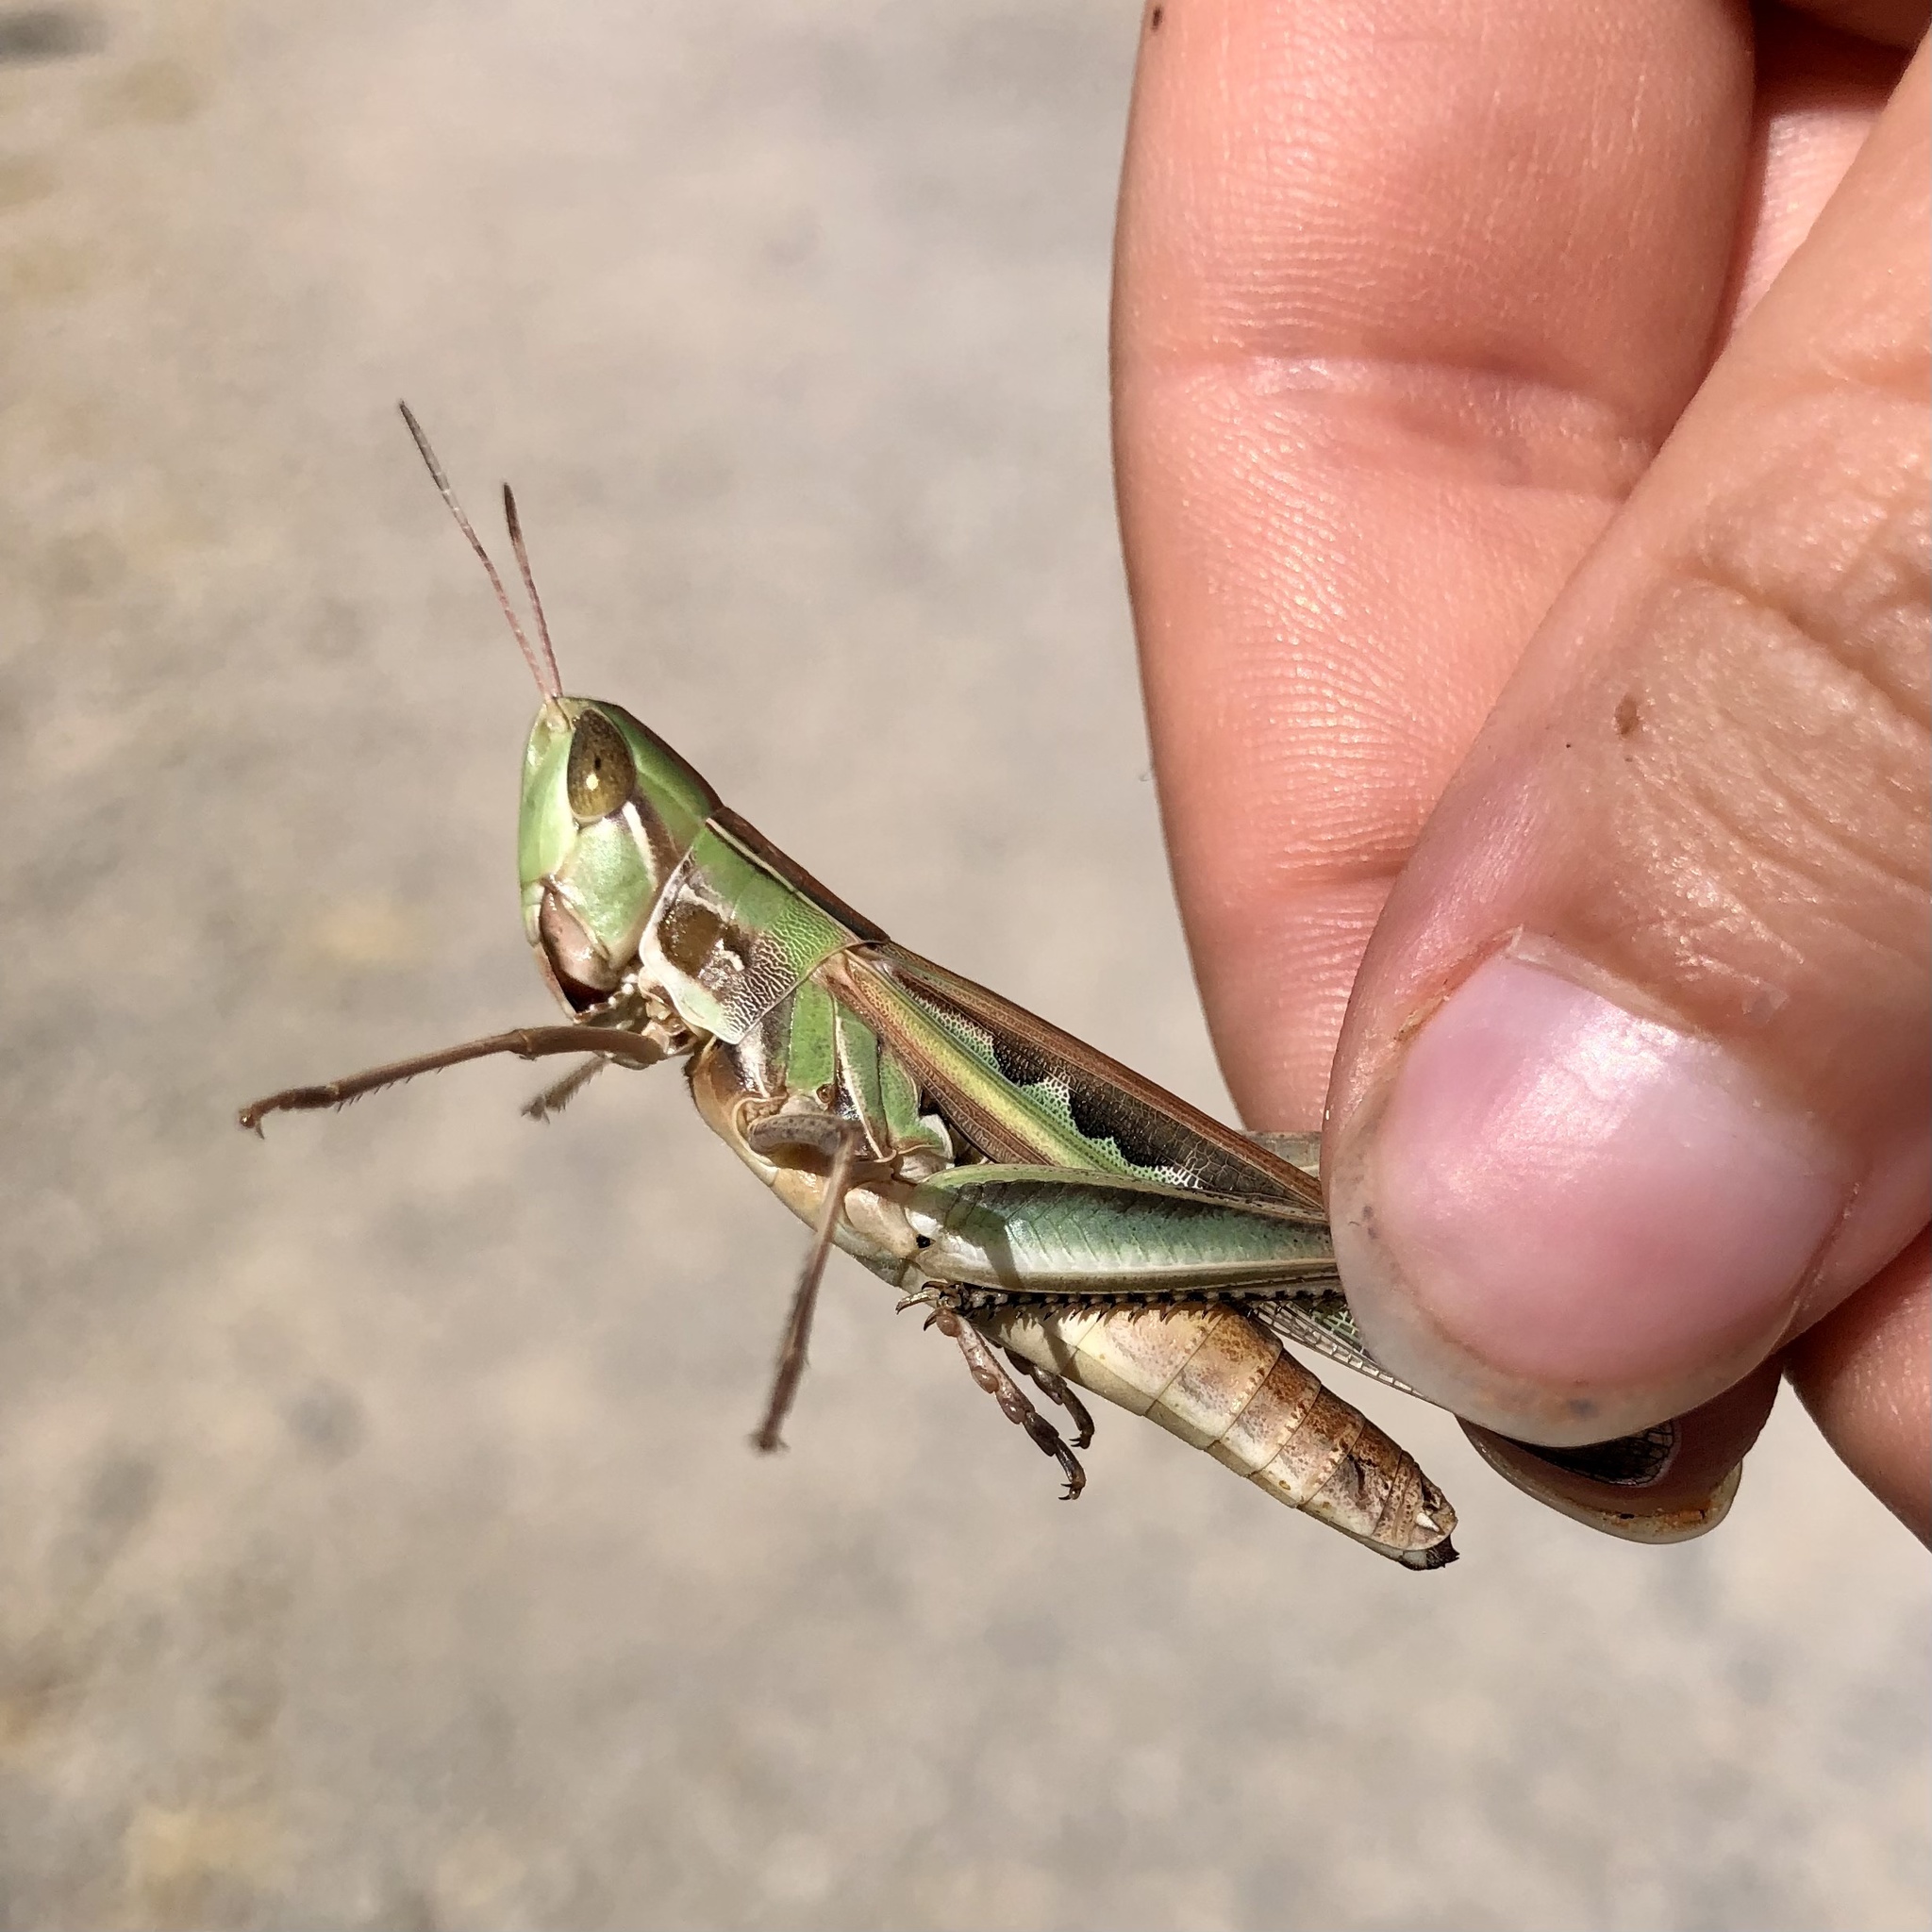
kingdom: Animalia
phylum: Arthropoda
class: Insecta
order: Orthoptera
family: Acrididae
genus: Syrbula
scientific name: Syrbula admirabilis
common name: Handsome grasshopper
